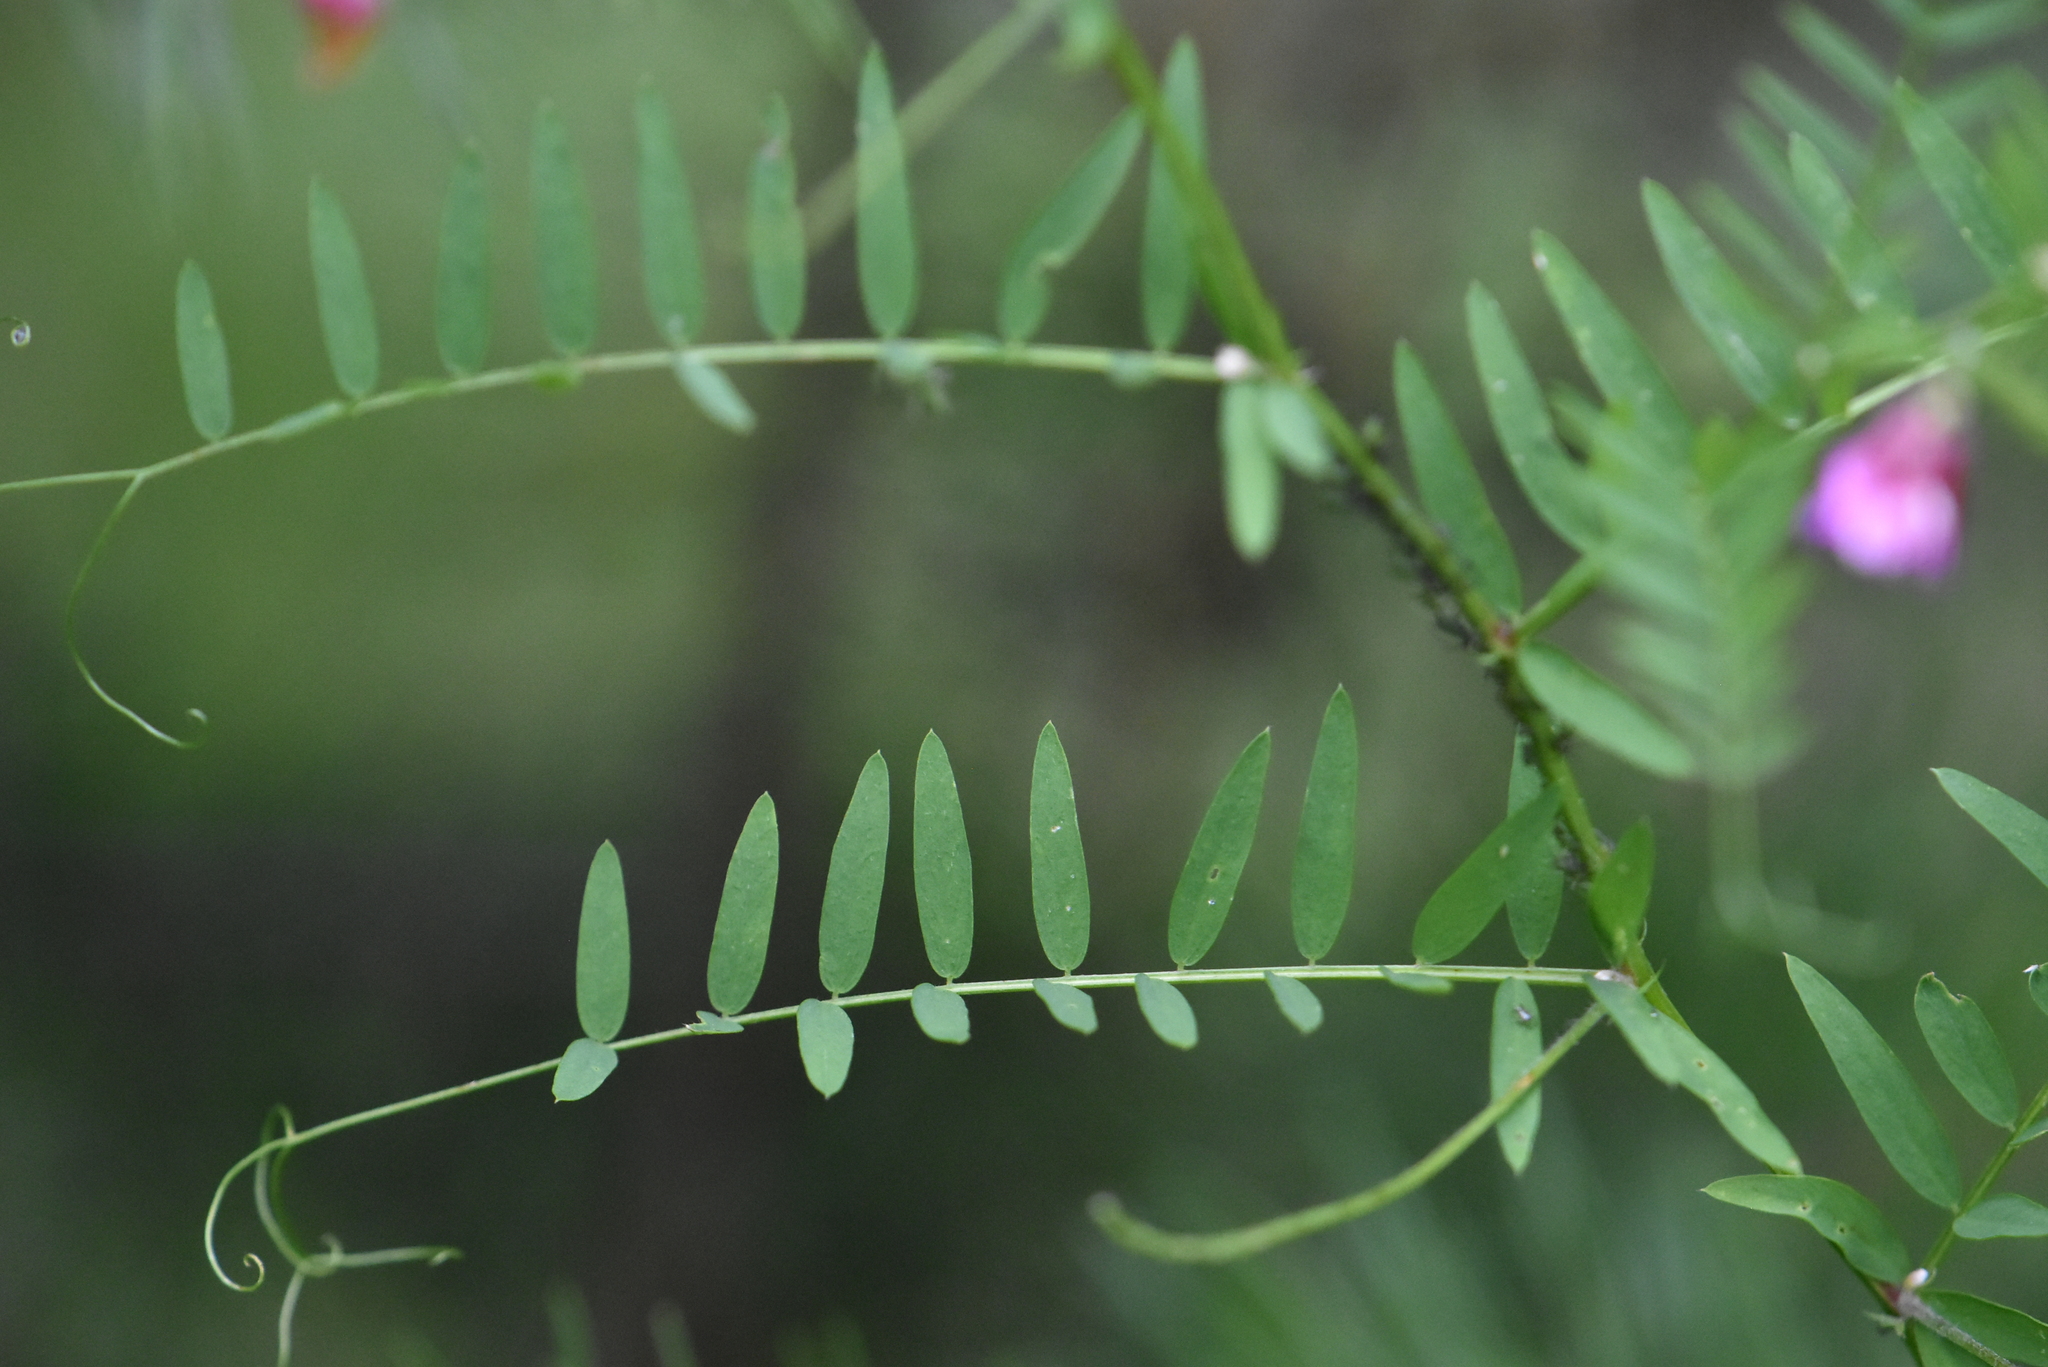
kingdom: Plantae
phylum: Tracheophyta
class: Magnoliopsida
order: Fabales
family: Fabaceae
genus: Vicia
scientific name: Vicia megalotropis
